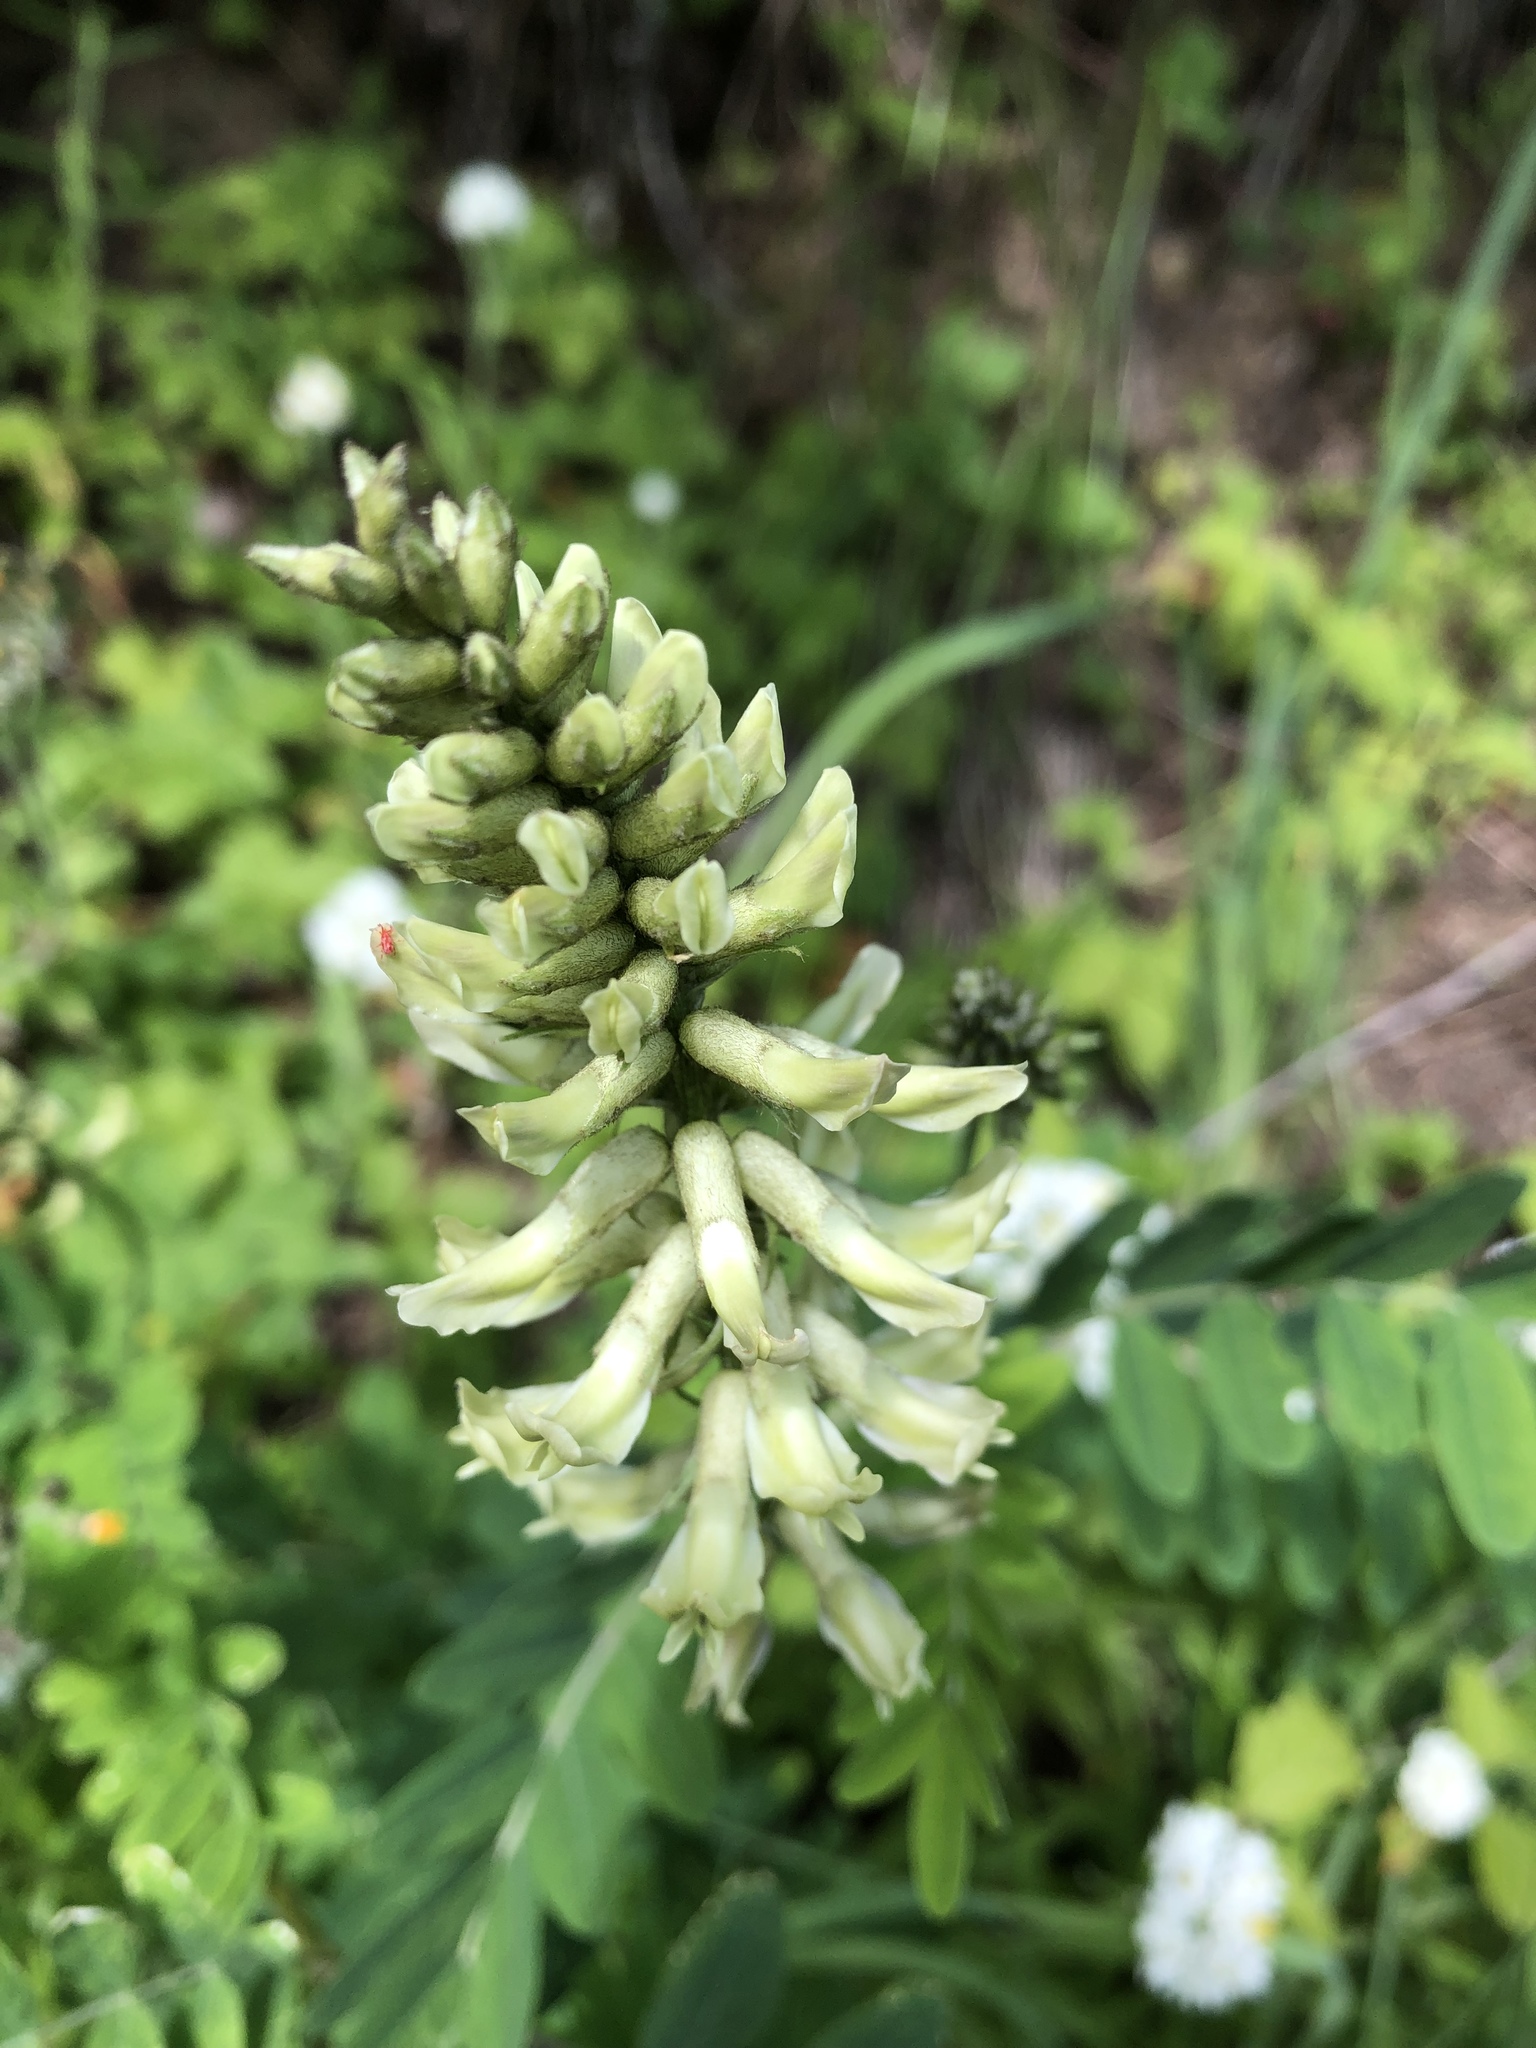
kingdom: Plantae
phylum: Tracheophyta
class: Magnoliopsida
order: Fabales
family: Fabaceae
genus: Astragalus
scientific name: Astragalus canadensis
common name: Canada milk-vetch
